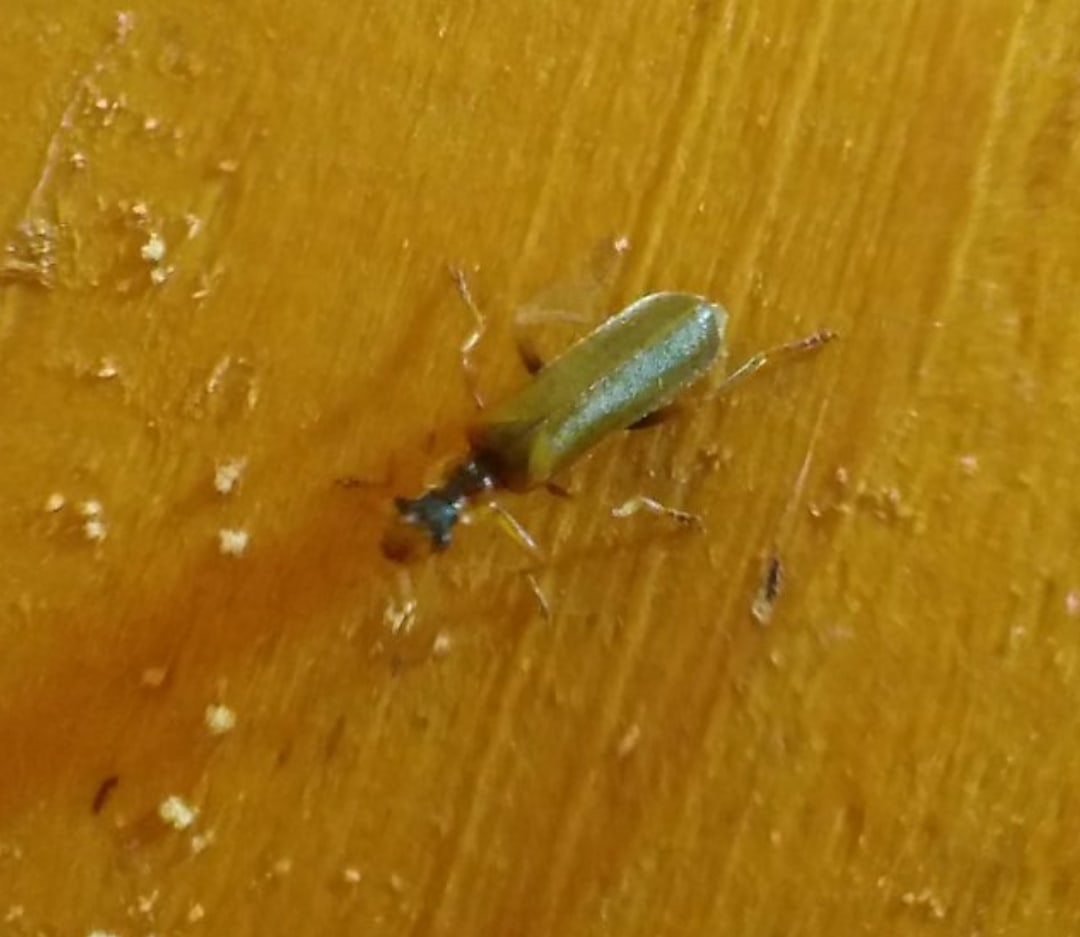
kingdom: Animalia
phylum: Arthropoda
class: Insecta
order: Coleoptera
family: Cantharidae
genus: Podabrus
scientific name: Podabrus alpinus
